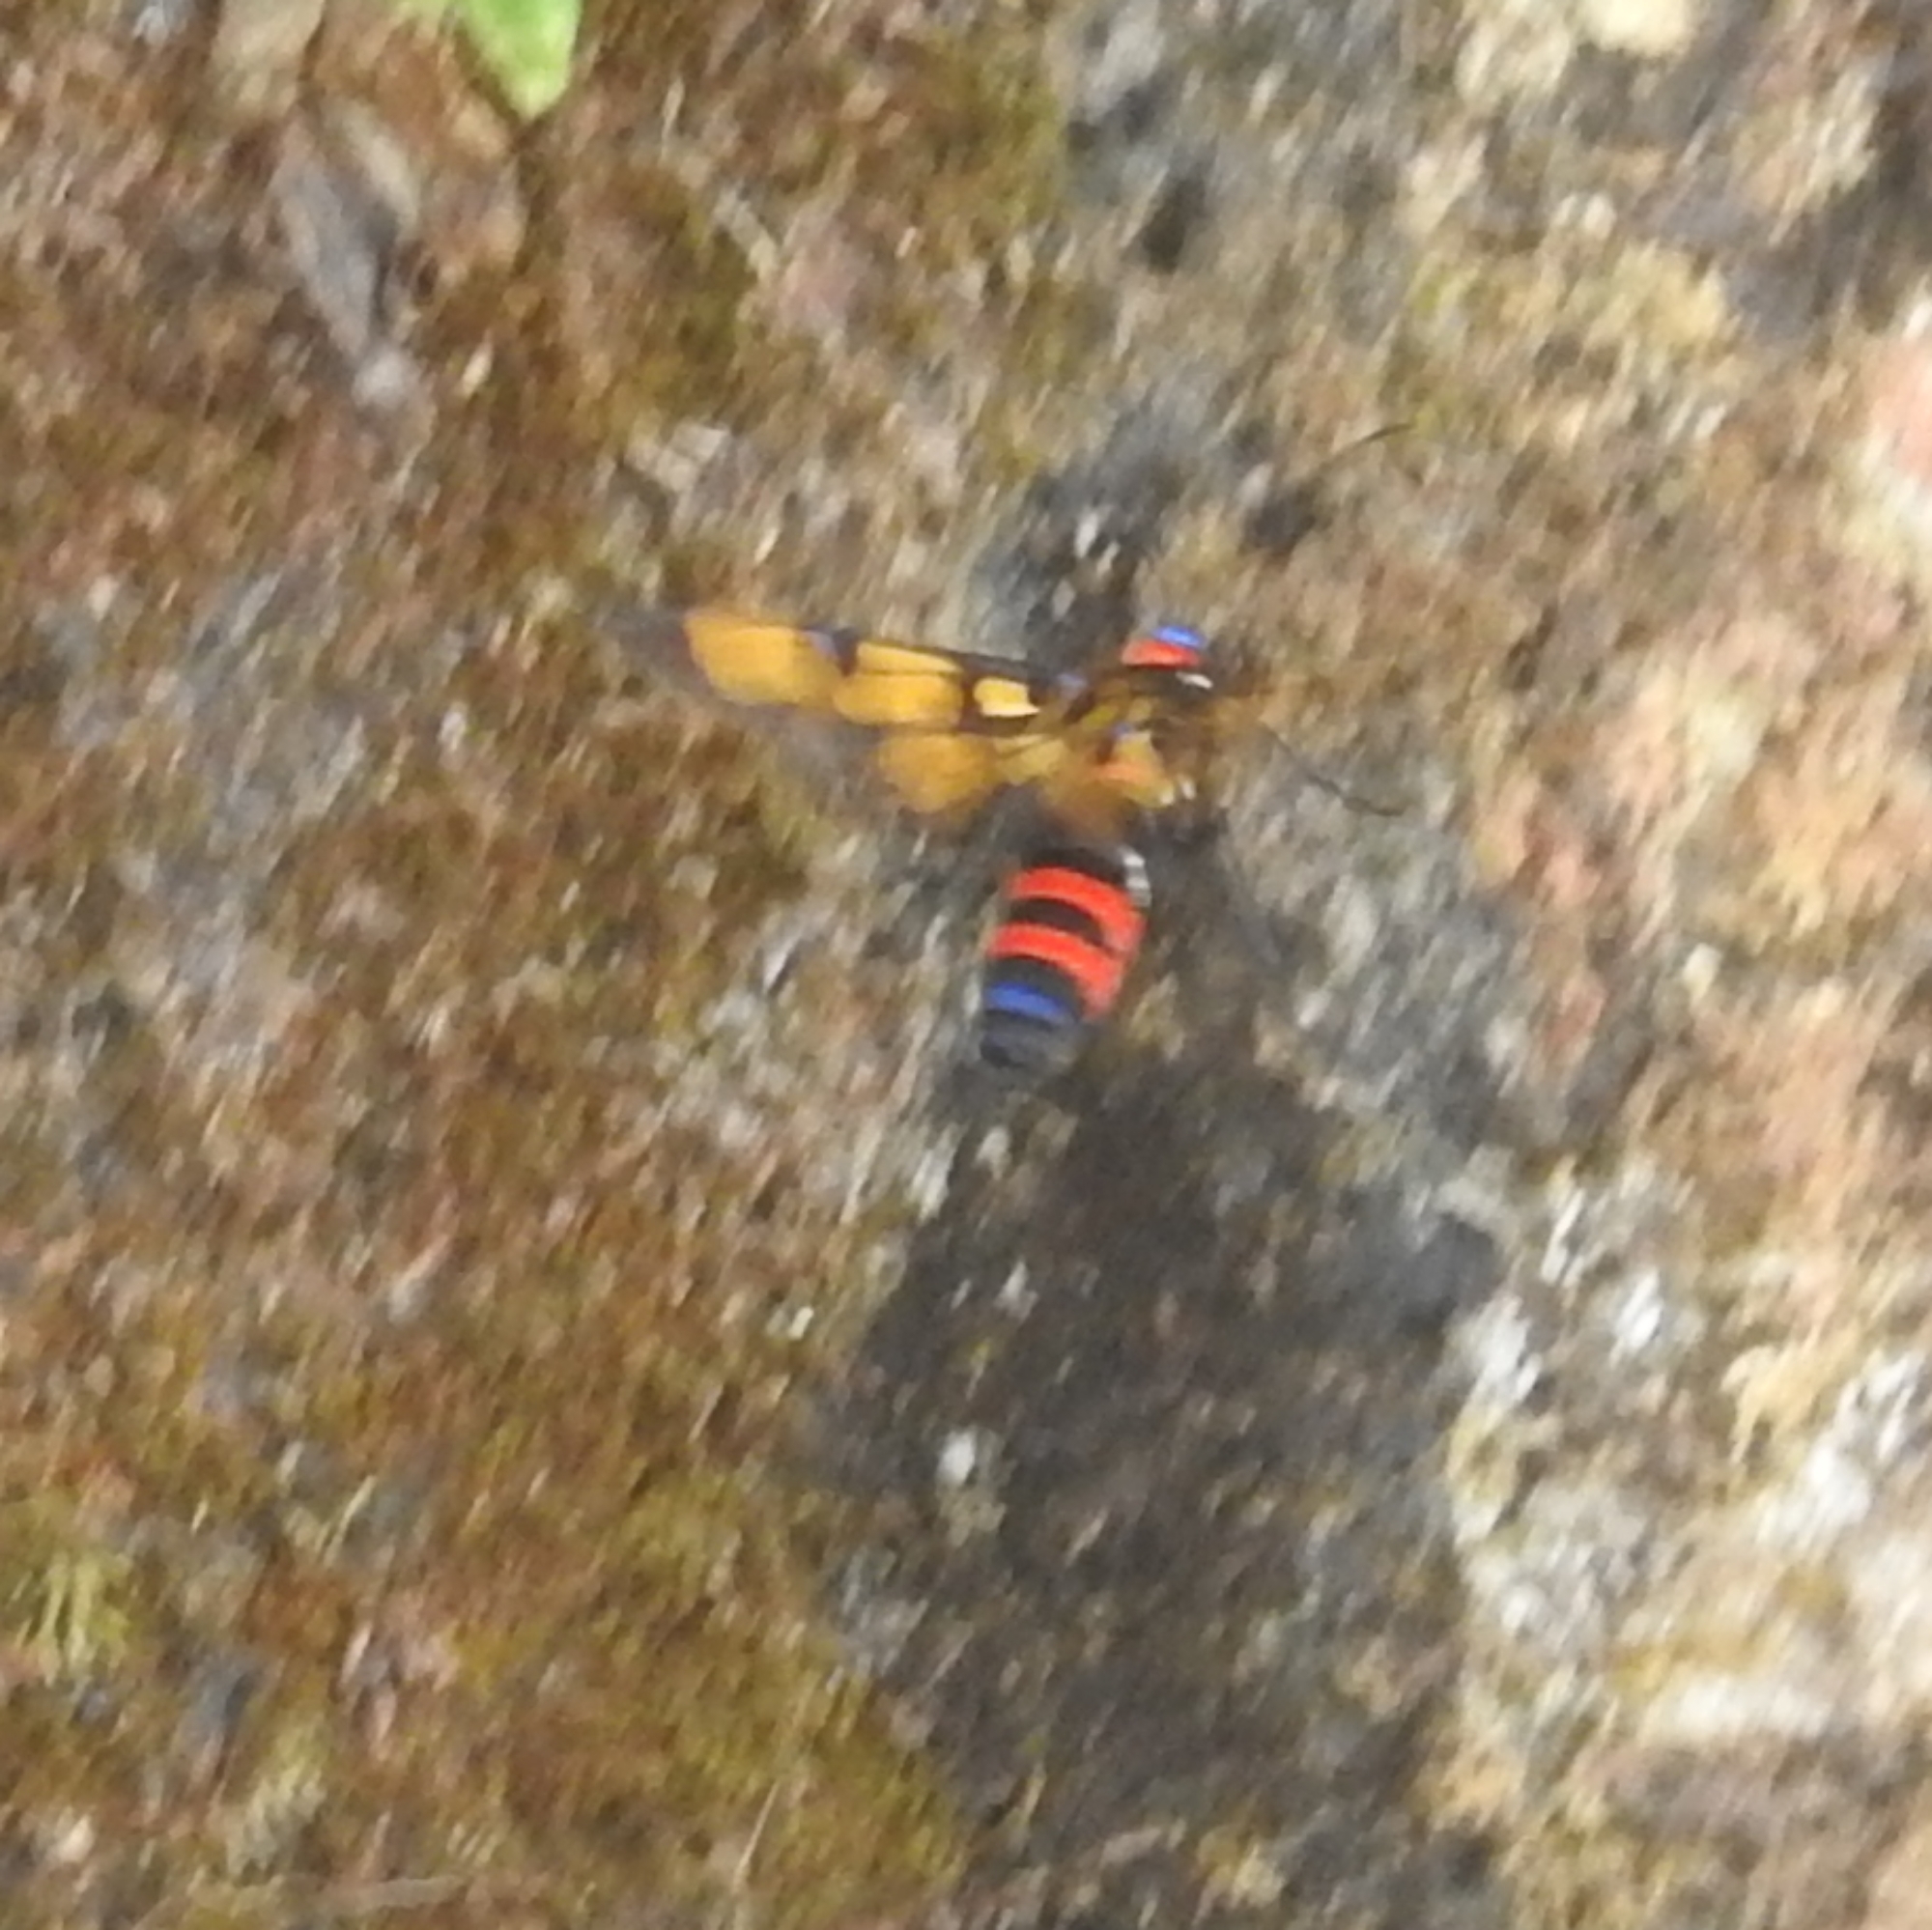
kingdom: Animalia
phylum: Arthropoda
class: Insecta
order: Lepidoptera
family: Erebidae
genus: Euchromia
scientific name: Euchromia polymena
